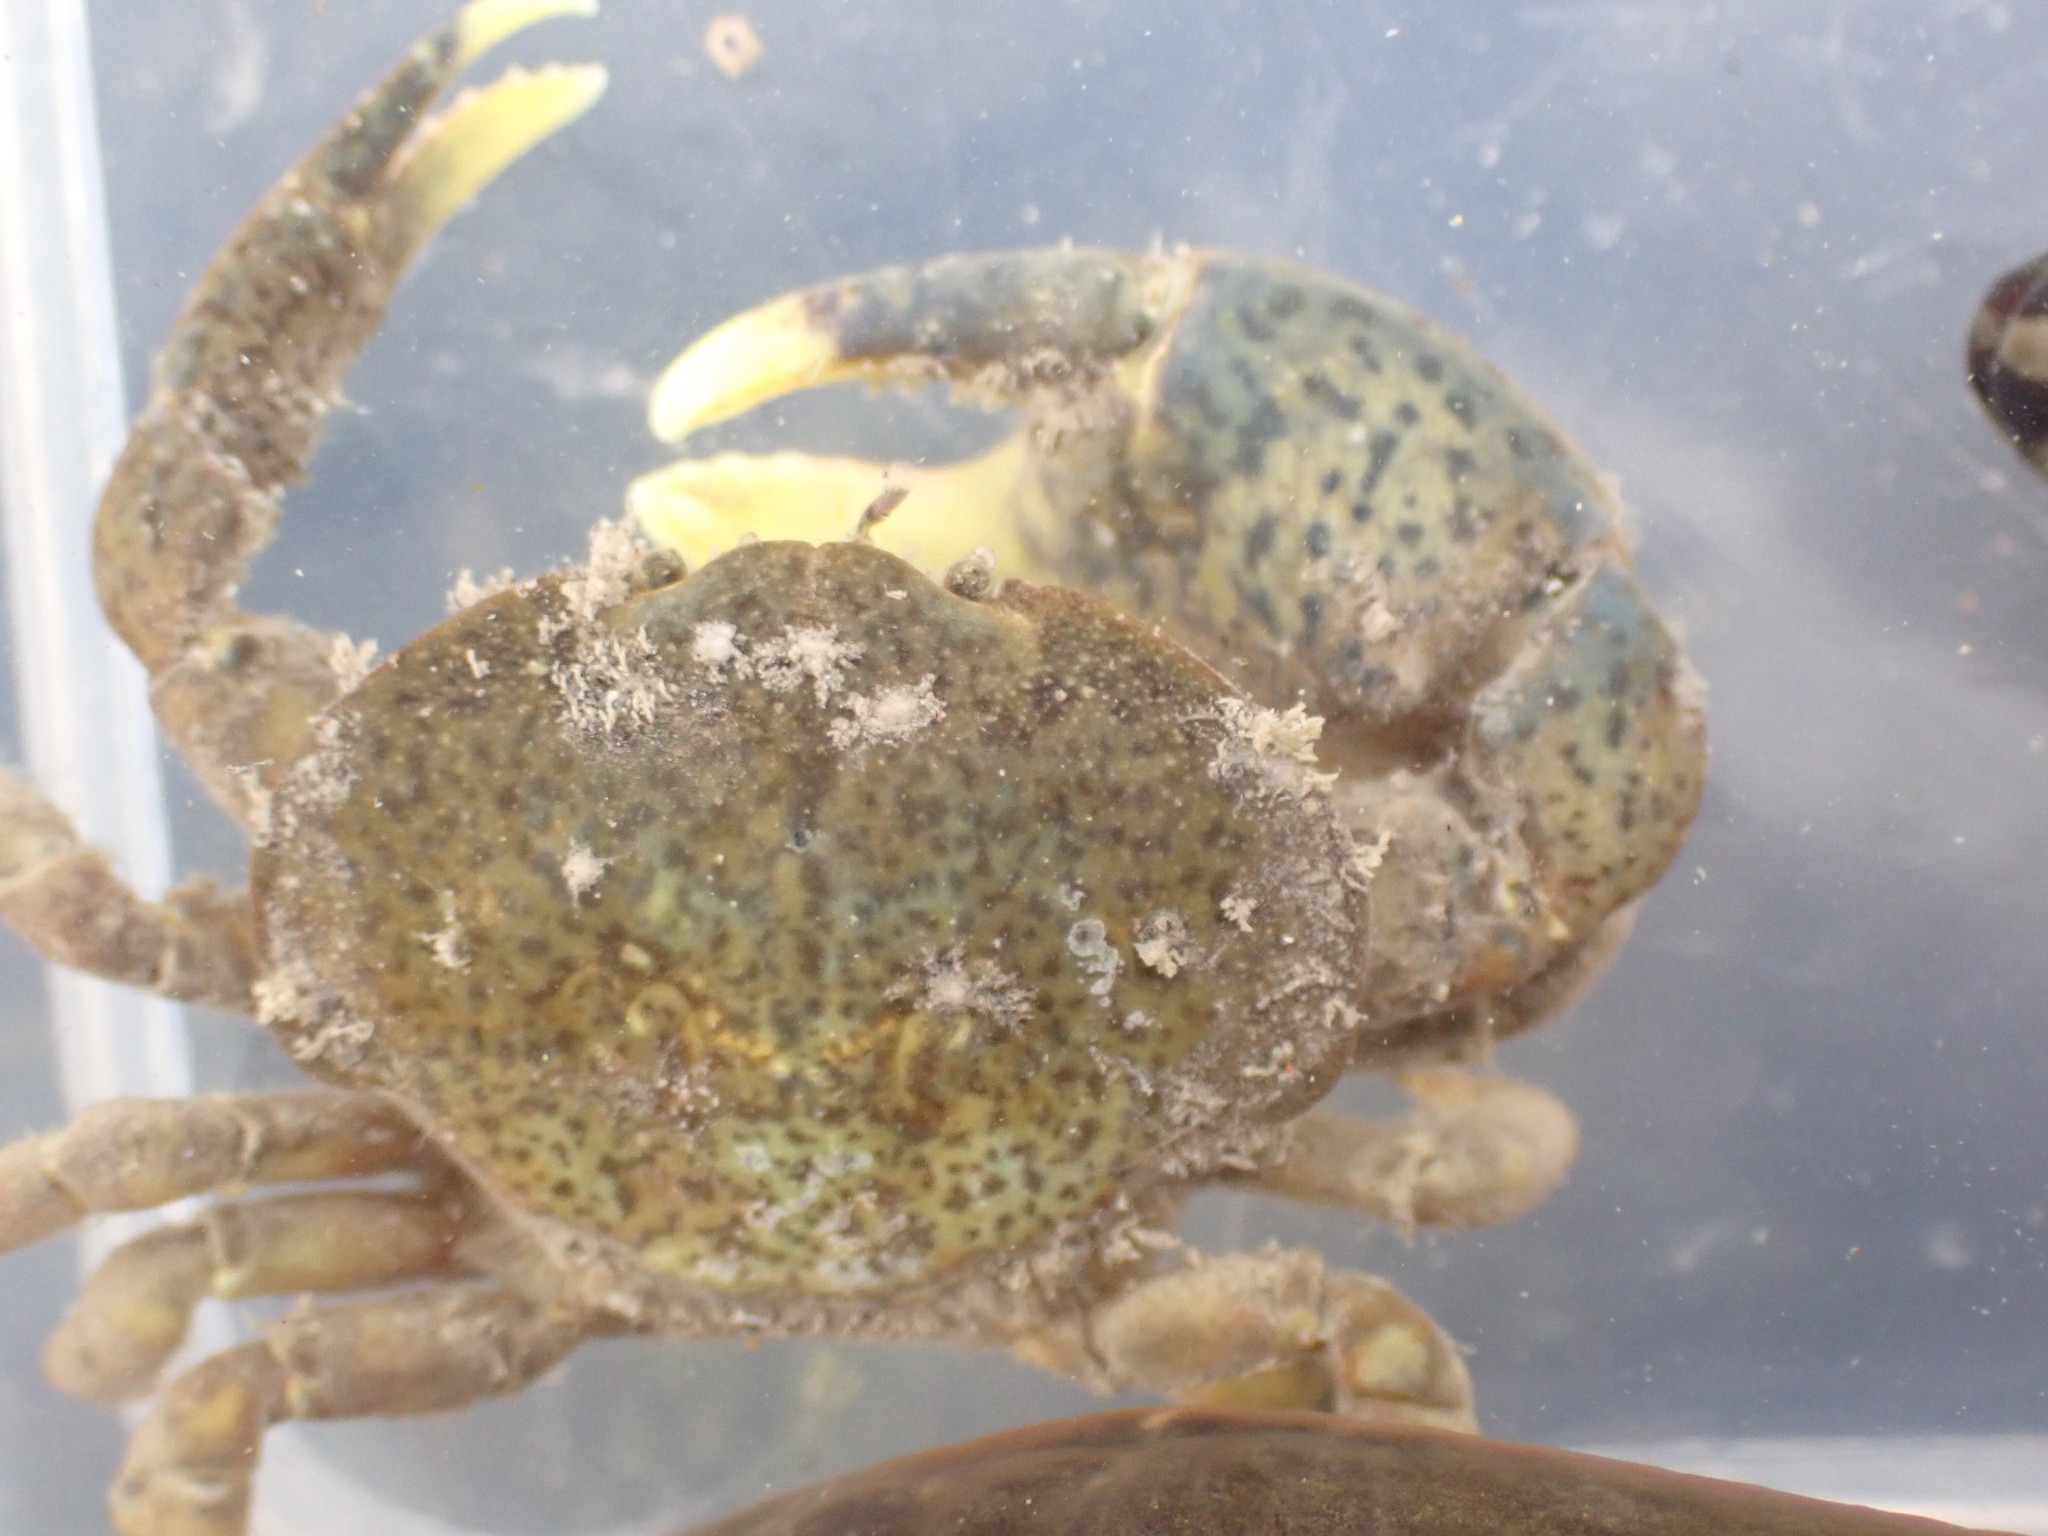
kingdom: Animalia
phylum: Arthropoda
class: Malacostraca
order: Decapoda
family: Heteroziidae
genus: Heterozius
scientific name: Heterozius rotundifrons
